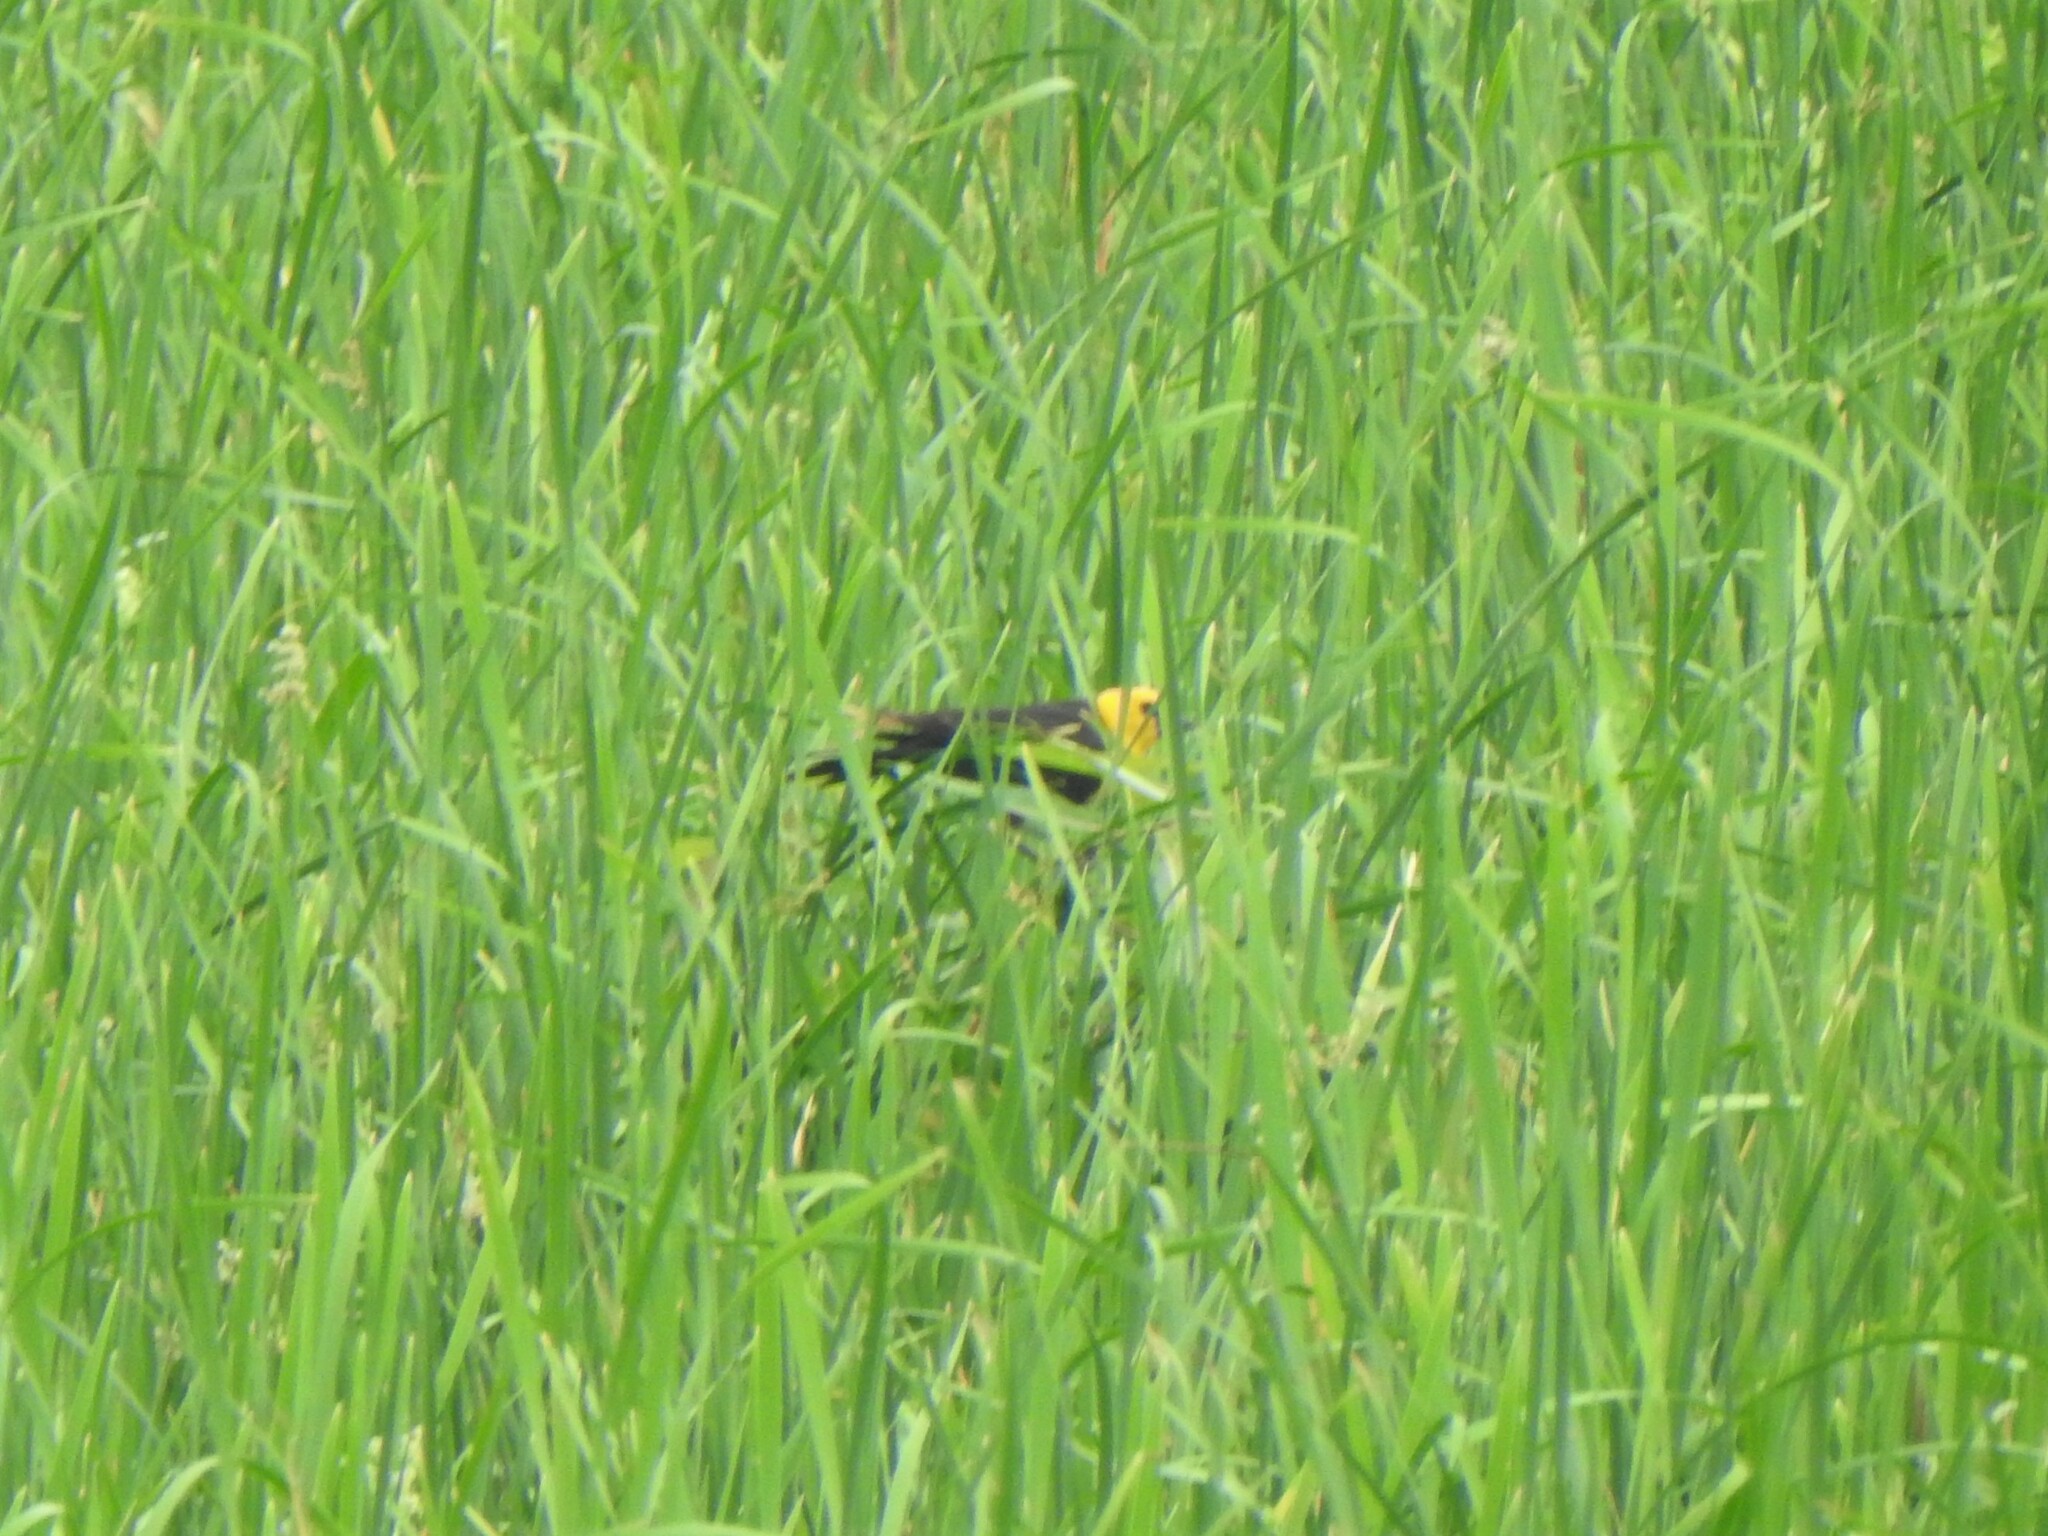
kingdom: Animalia
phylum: Chordata
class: Aves
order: Passeriformes
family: Icteridae
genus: Xanthocephalus
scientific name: Xanthocephalus xanthocephalus
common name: Yellow-headed blackbird
